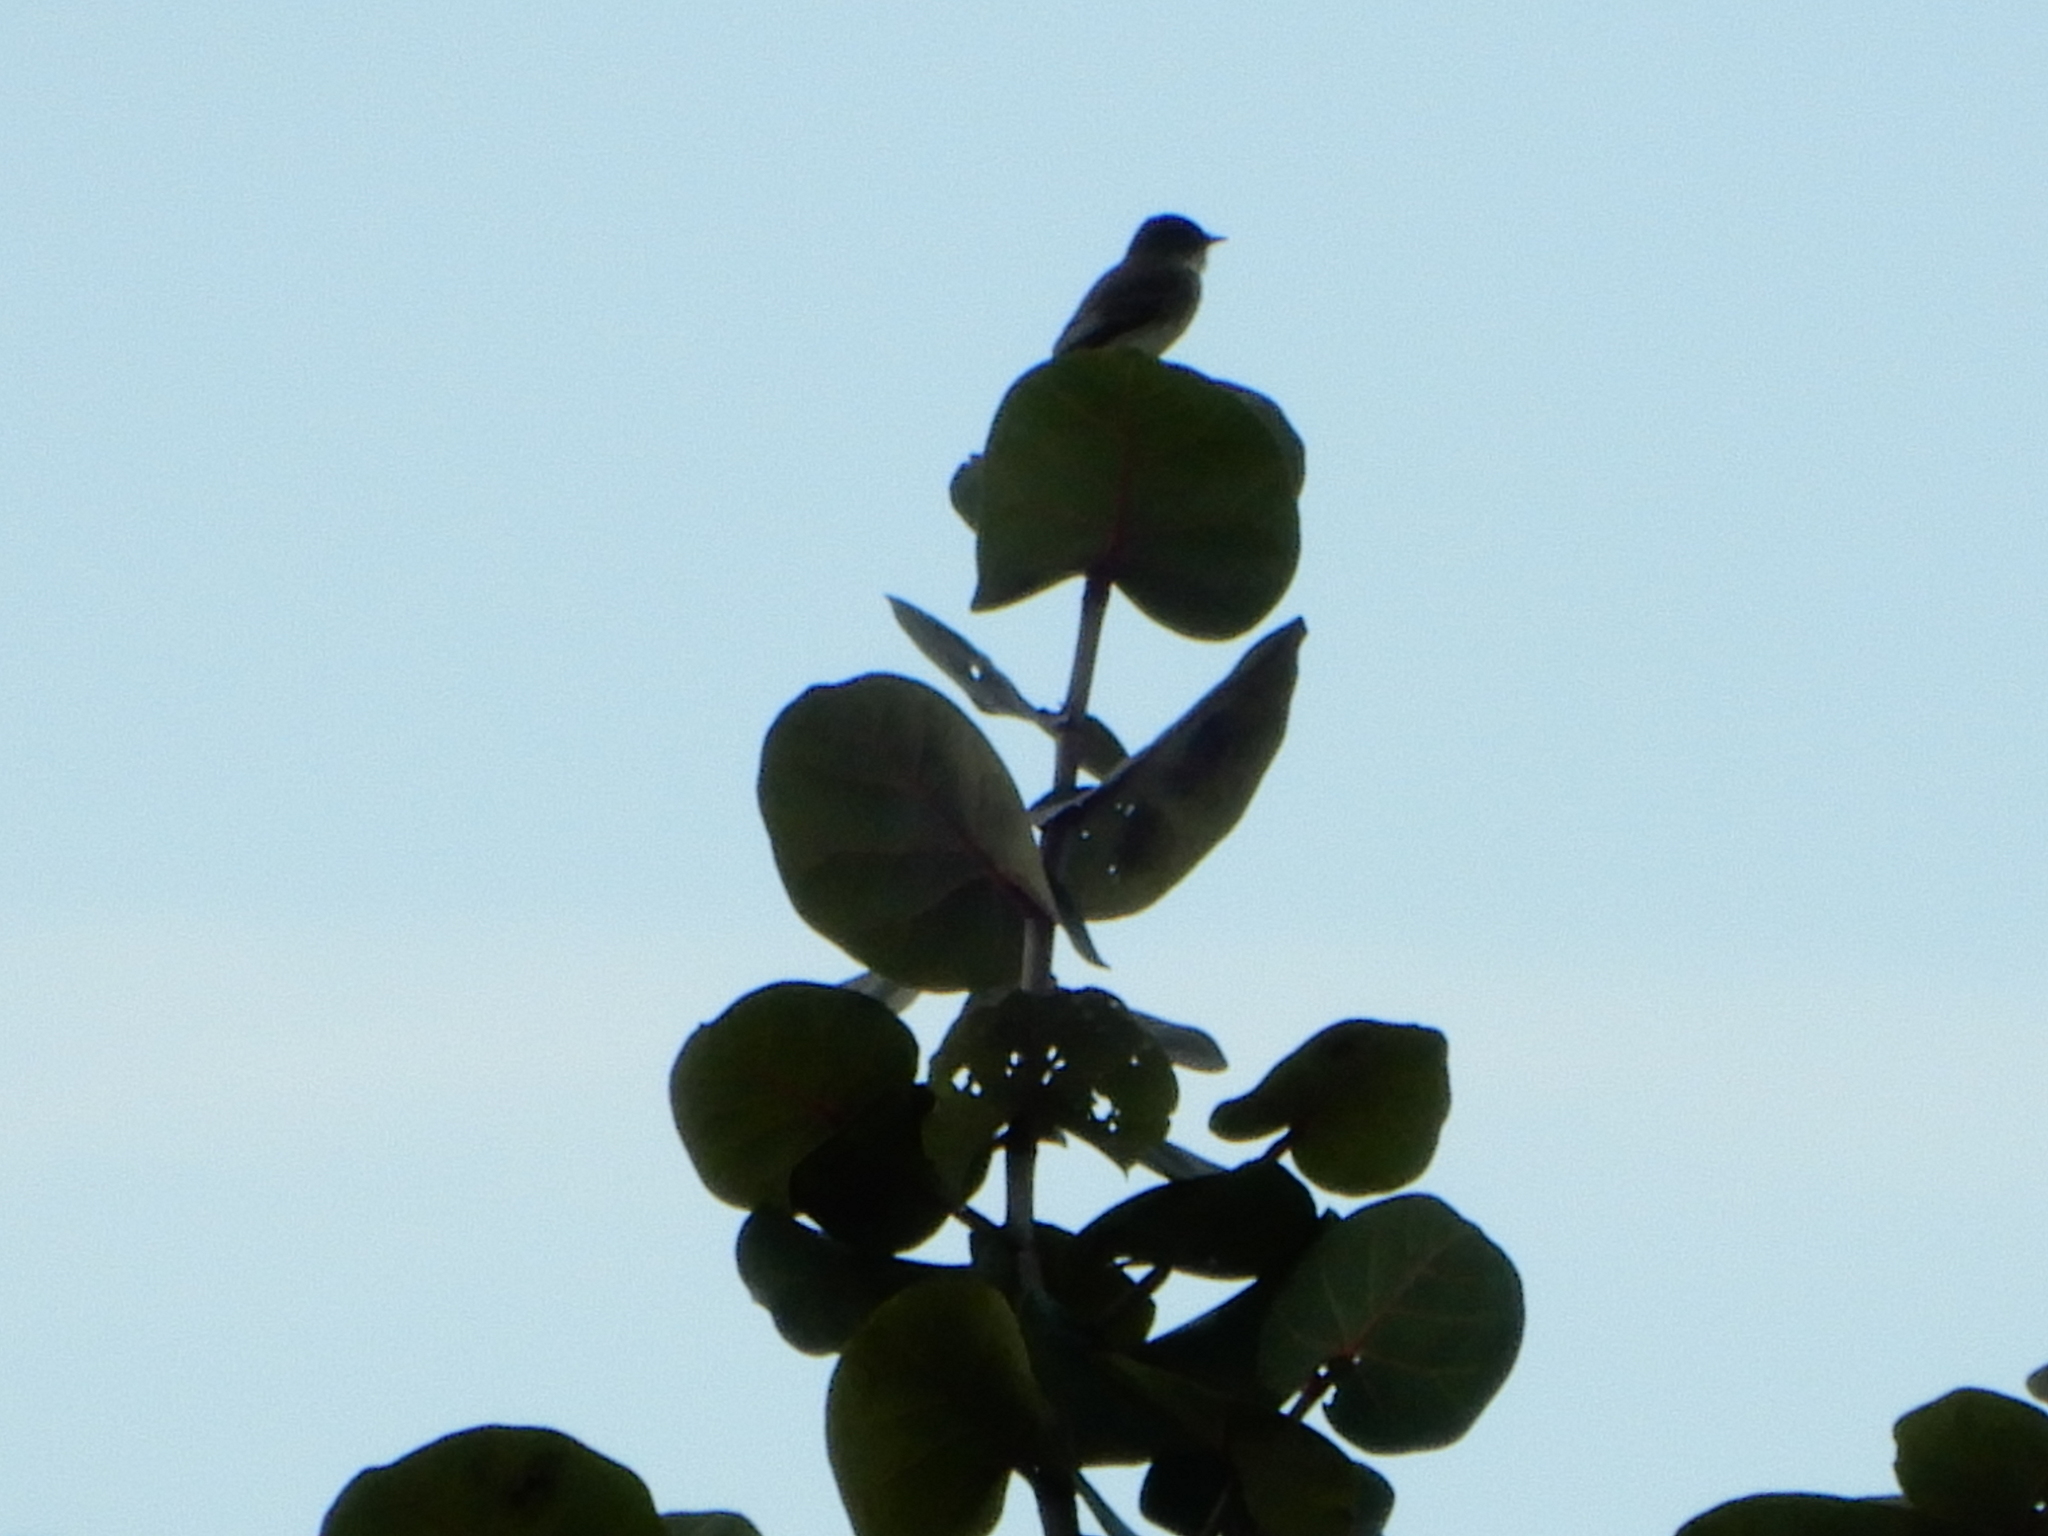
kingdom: Animalia
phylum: Chordata
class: Aves
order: Passeriformes
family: Tyrannidae
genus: Sayornis
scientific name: Sayornis phoebe
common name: Eastern phoebe
